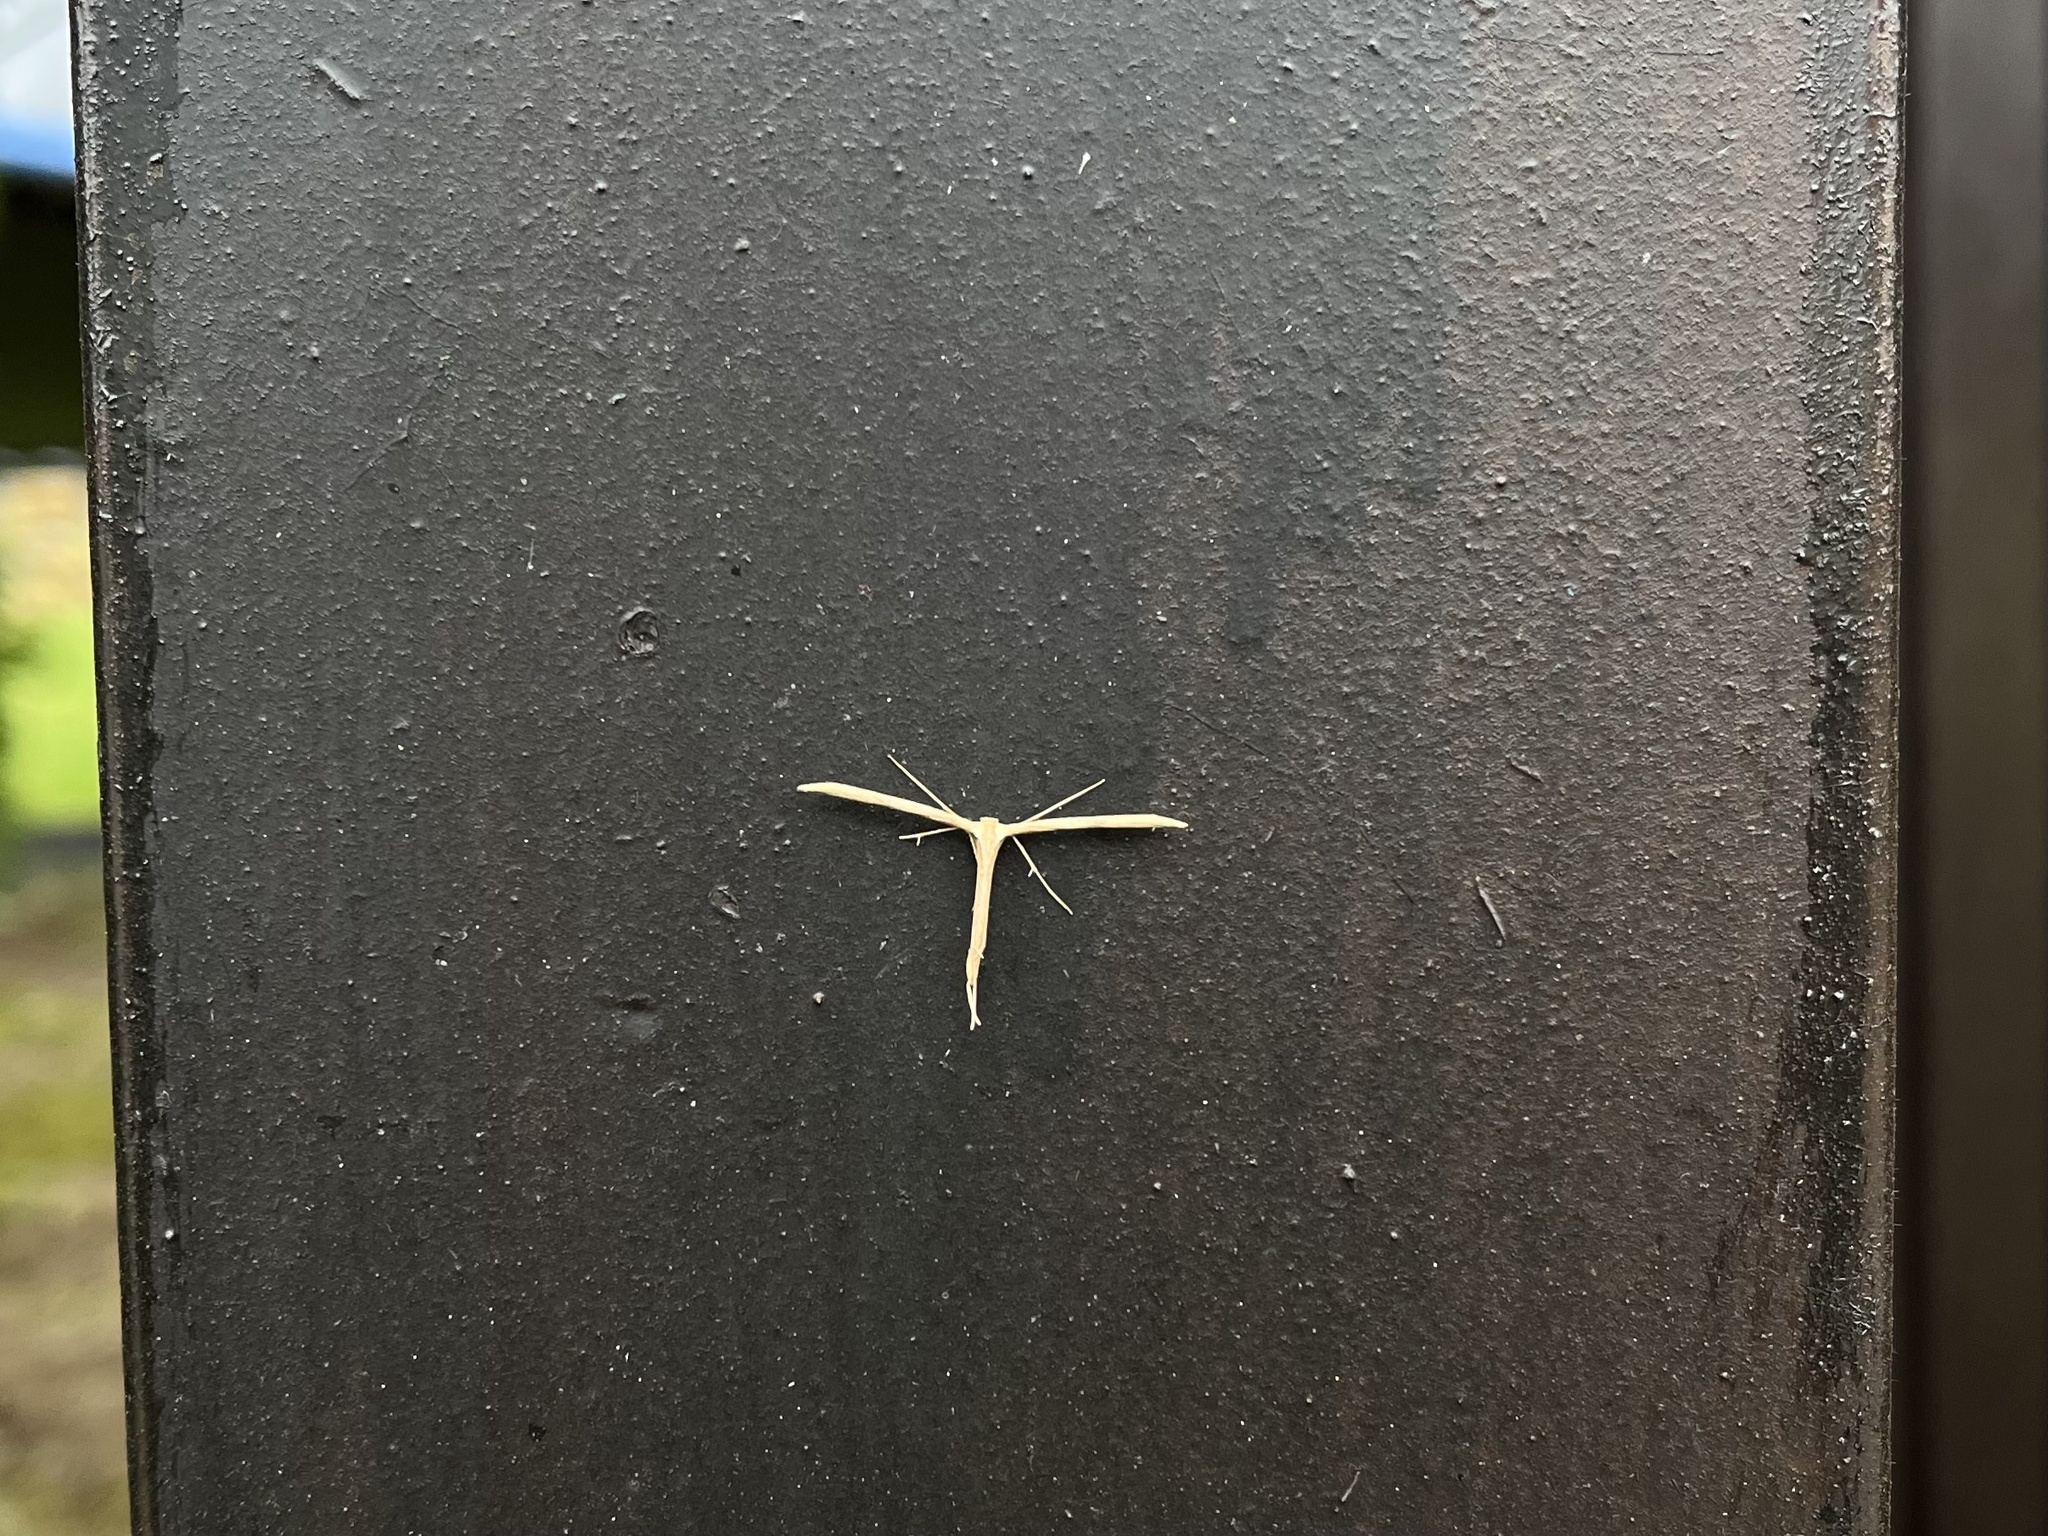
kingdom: Animalia
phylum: Arthropoda
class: Insecta
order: Lepidoptera
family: Pterophoridae
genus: Emmelina
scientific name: Emmelina monodactyla
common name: Common plume
